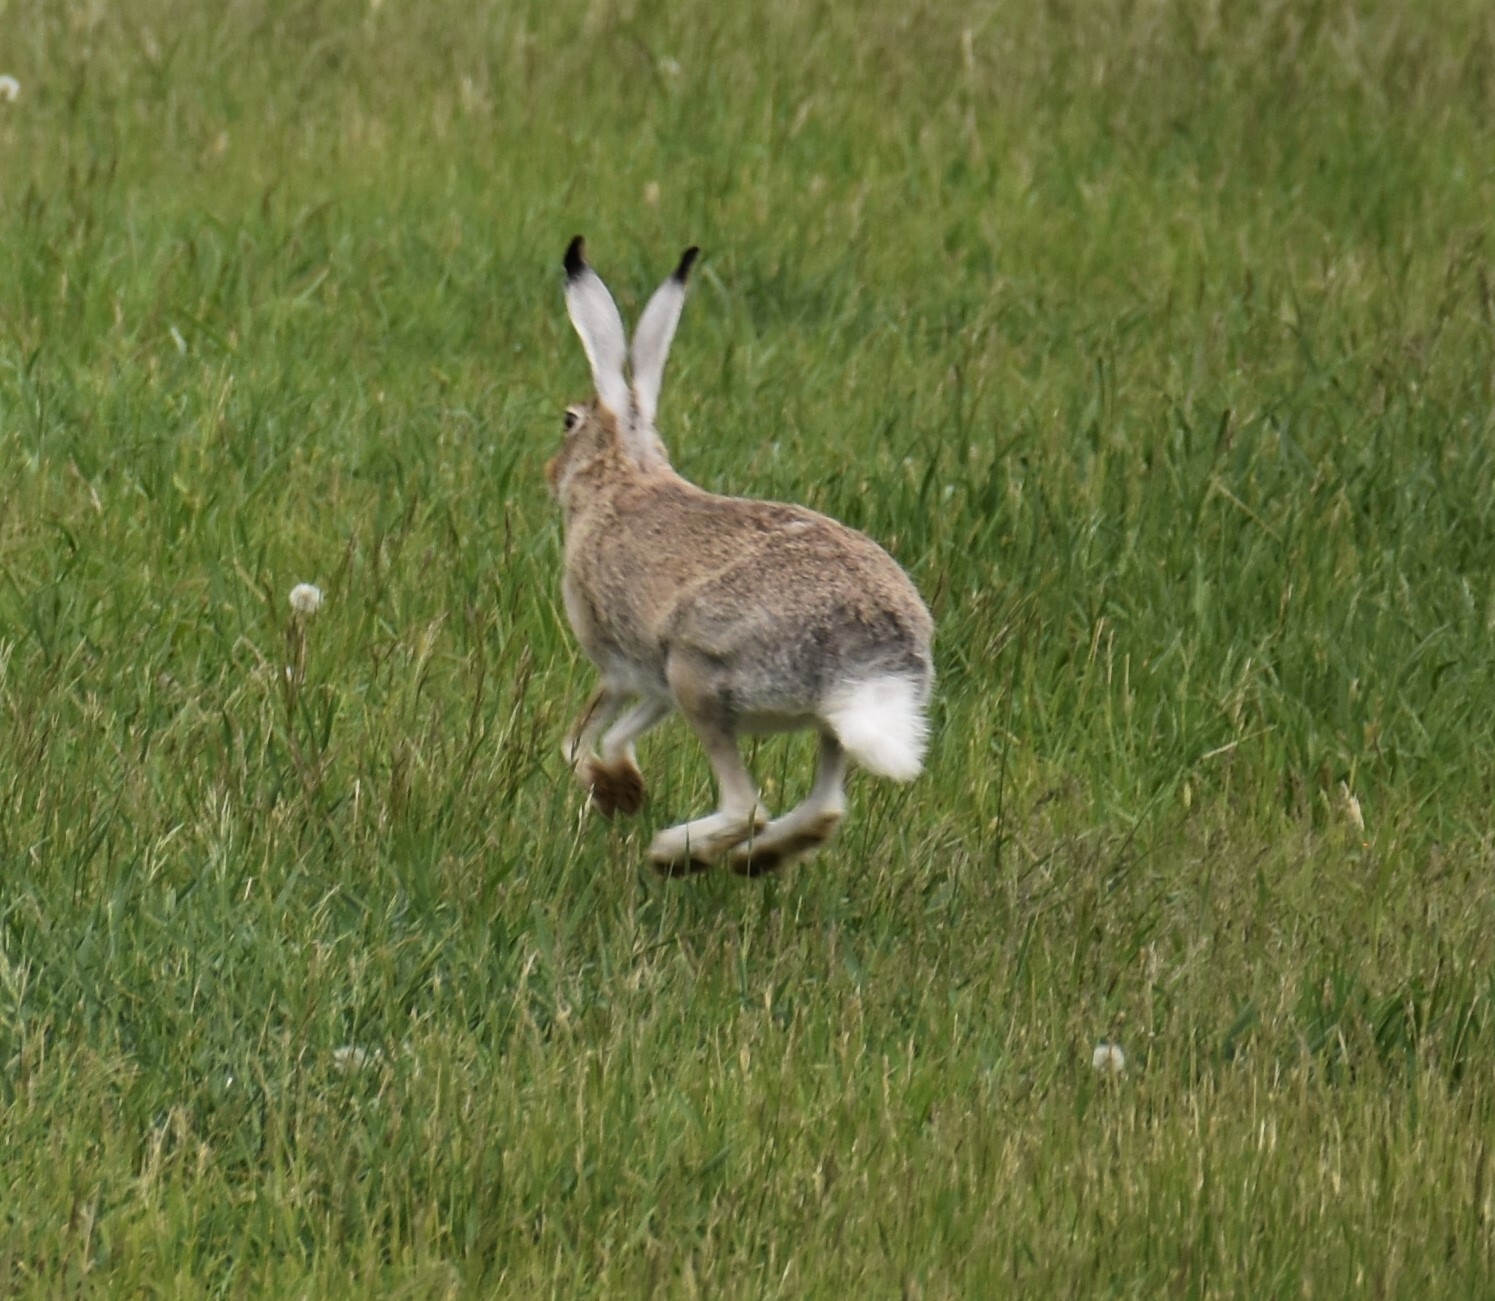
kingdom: Animalia
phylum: Chordata
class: Mammalia
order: Lagomorpha
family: Leporidae
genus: Lepus
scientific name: Lepus townsendii
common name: White-tailed jackrabbit
